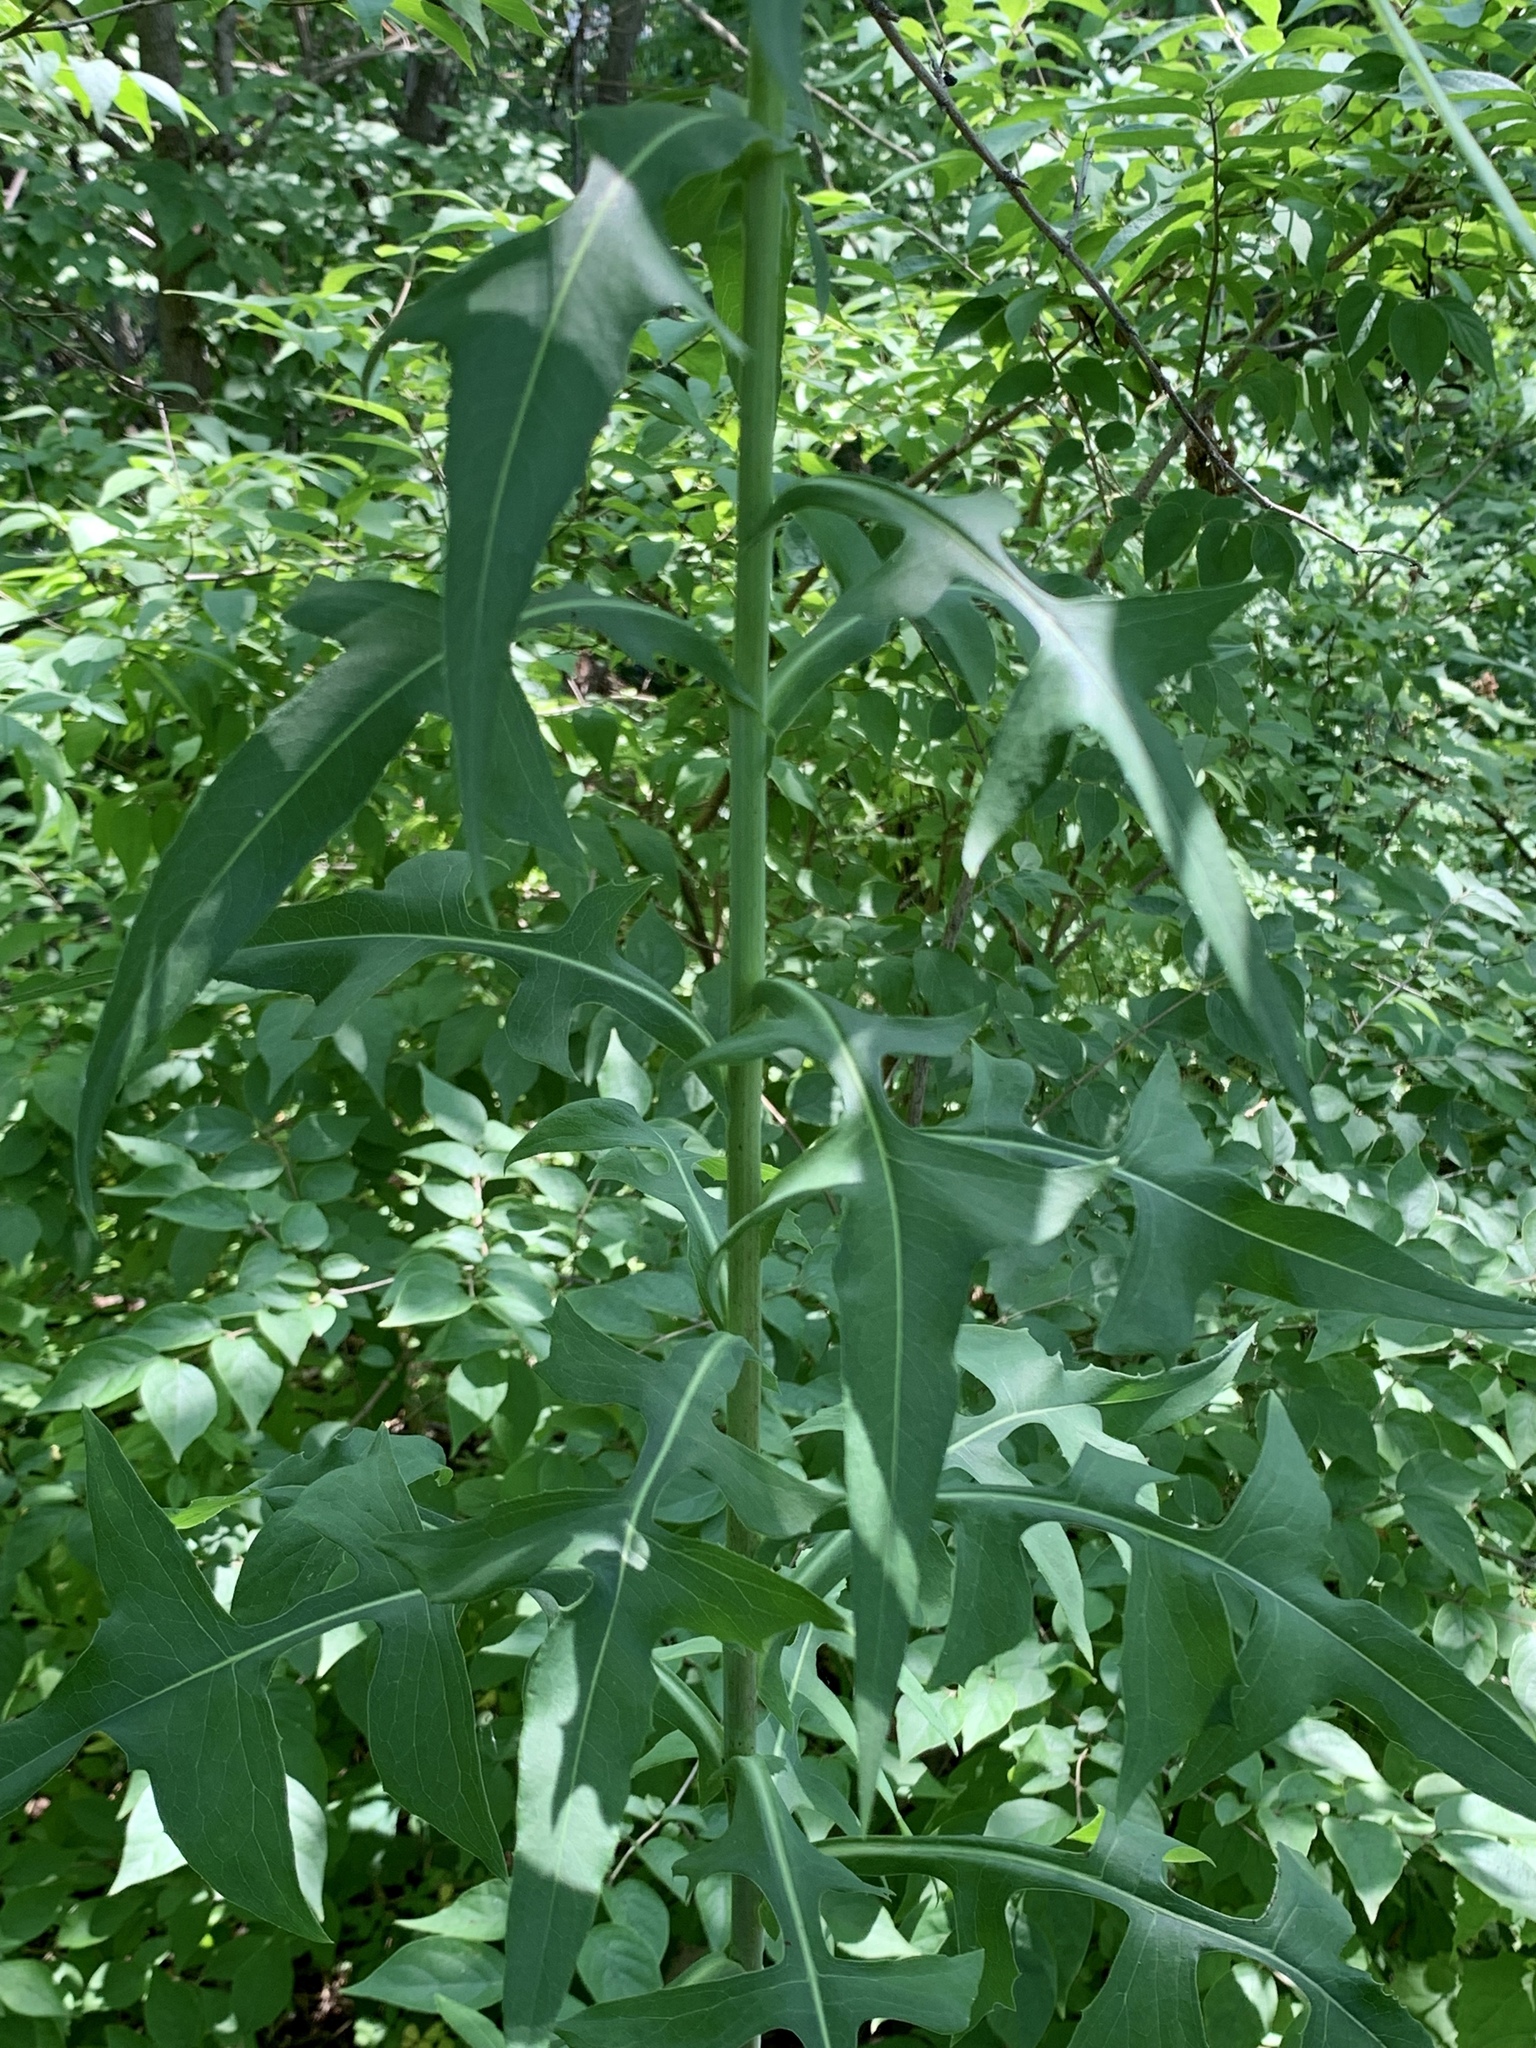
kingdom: Plantae
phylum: Tracheophyta
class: Magnoliopsida
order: Asterales
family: Asteraceae
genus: Lactuca
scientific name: Lactuca canadensis
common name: Canada lettuce
